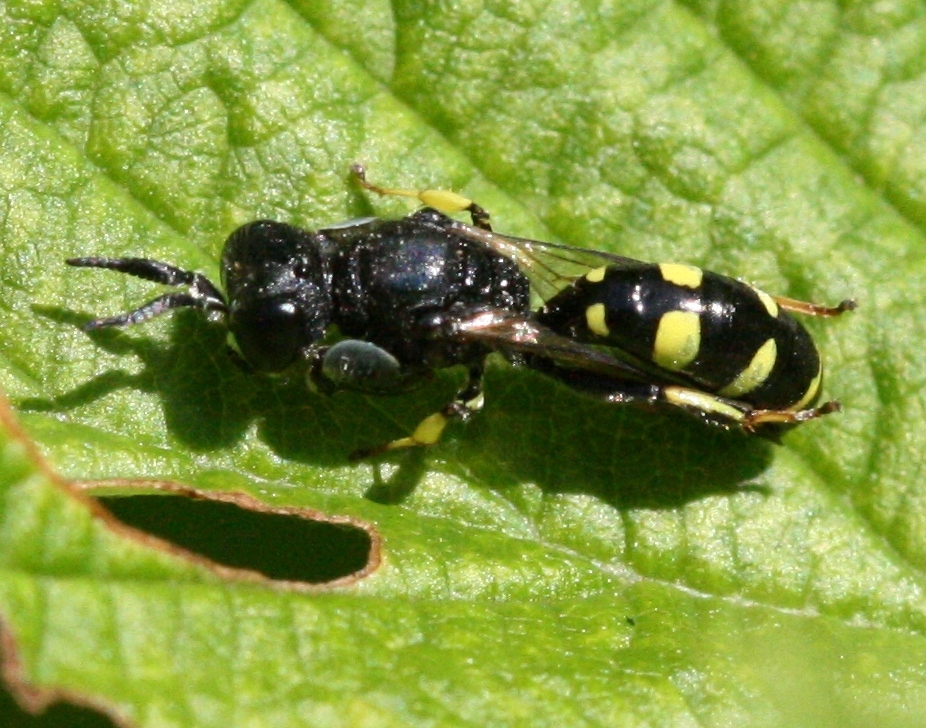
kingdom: Animalia
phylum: Arthropoda
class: Insecta
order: Hymenoptera
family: Crabronidae
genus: Crabro
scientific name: Crabro peltarius
